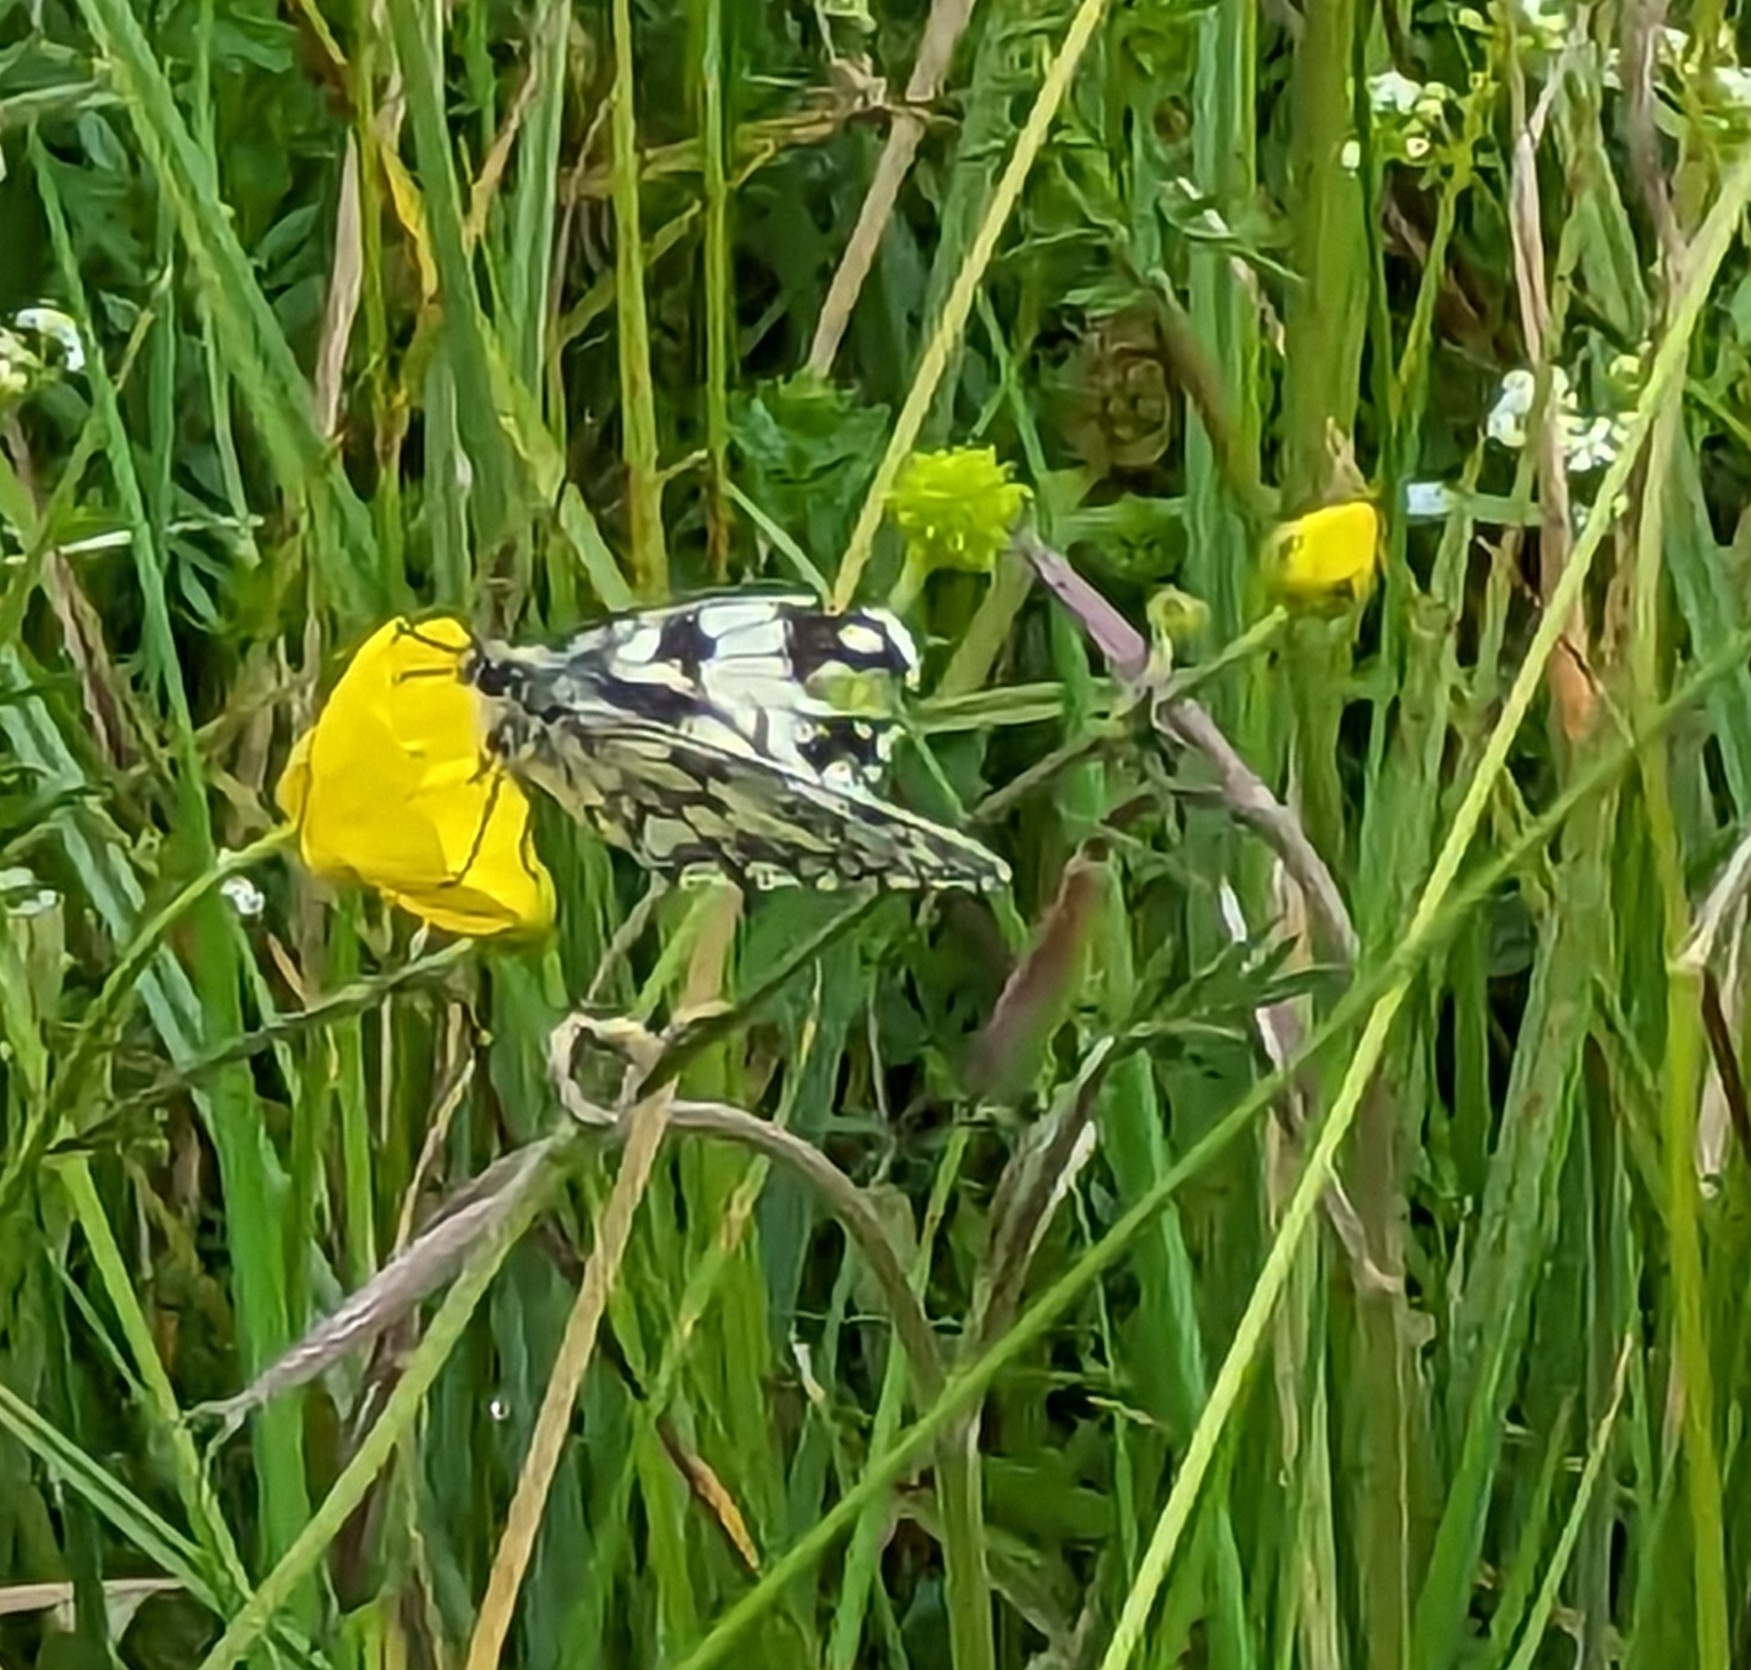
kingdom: Animalia
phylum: Arthropoda
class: Insecta
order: Lepidoptera
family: Nymphalidae
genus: Melanargia
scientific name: Melanargia galathea
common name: Marbled white
